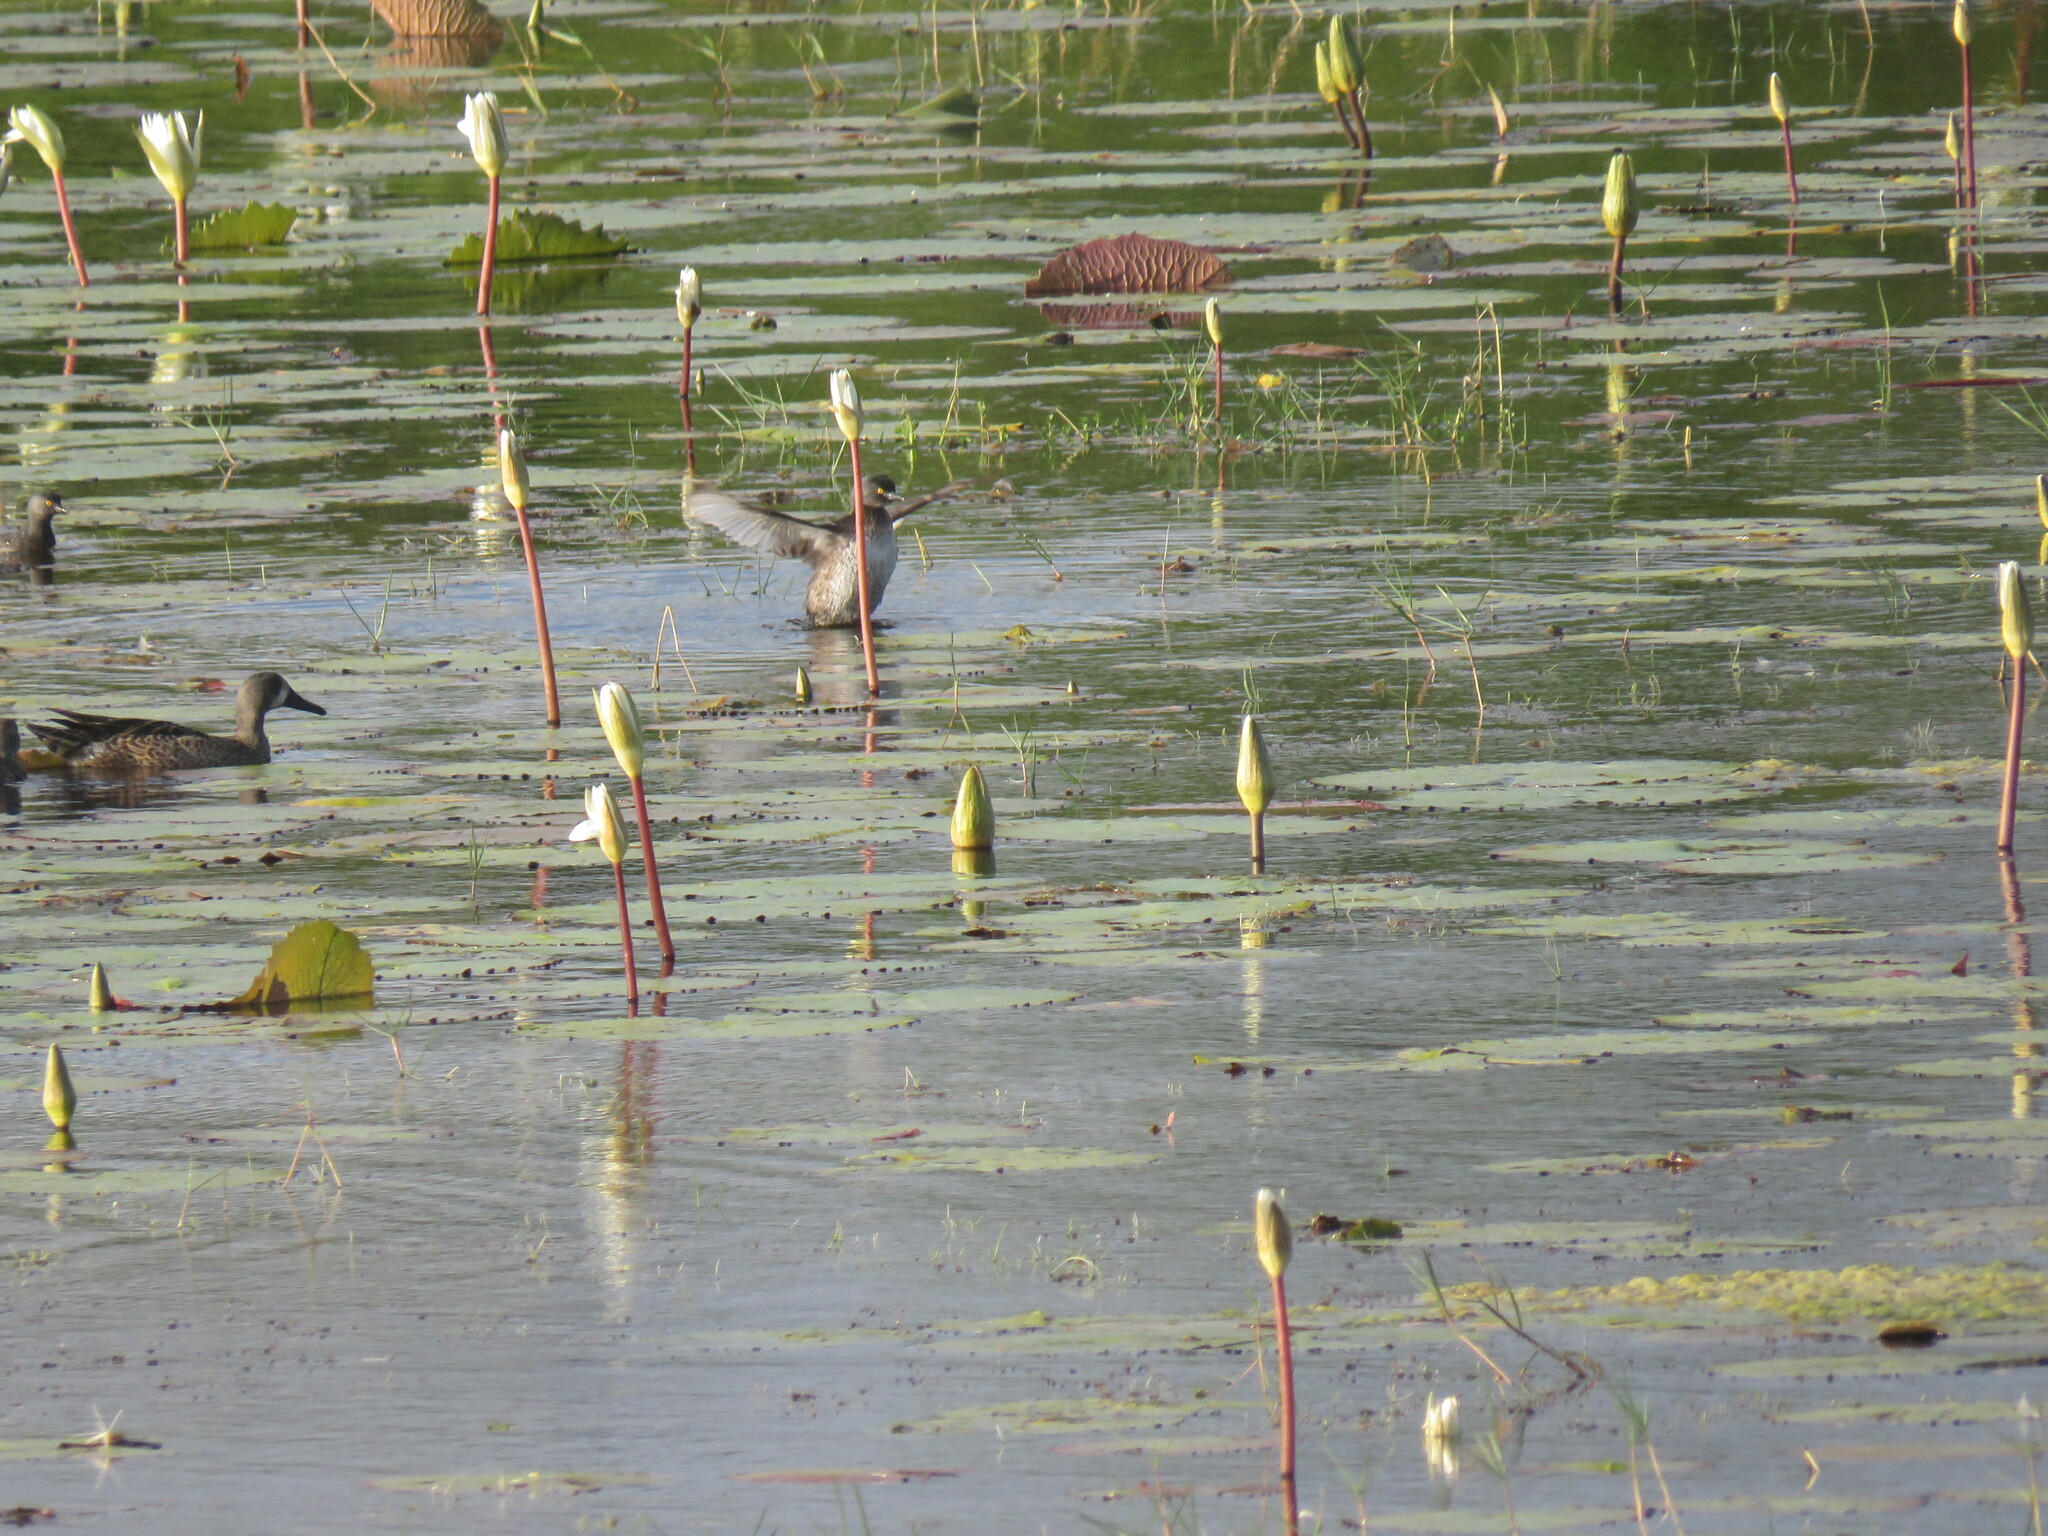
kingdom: Animalia
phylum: Chordata
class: Aves
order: Podicipediformes
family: Podicipedidae
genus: Tachybaptus
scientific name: Tachybaptus dominicus
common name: Least grebe
